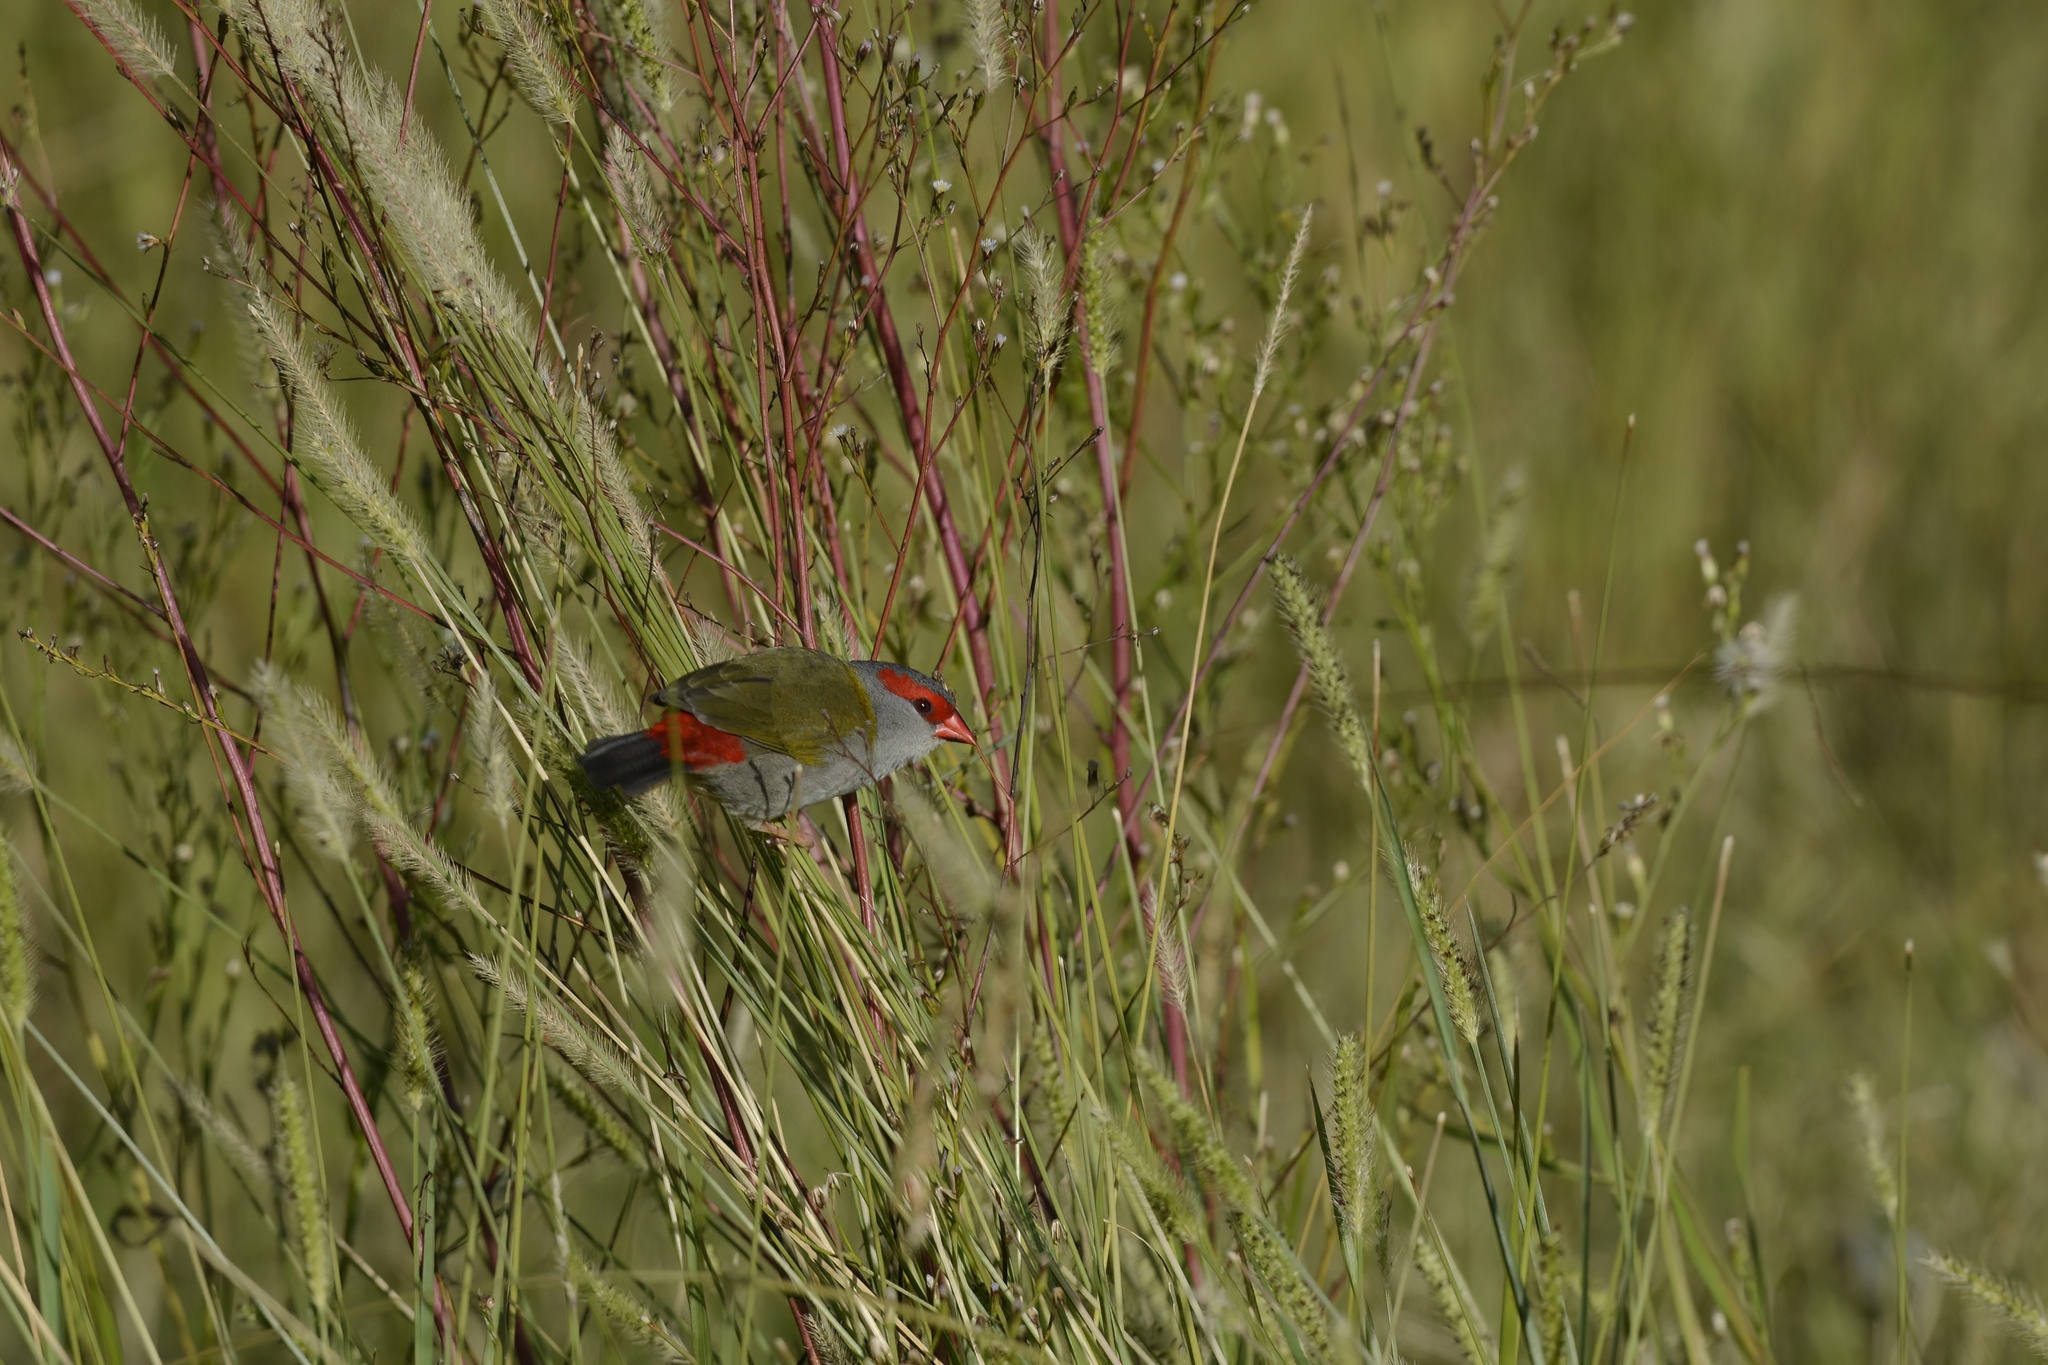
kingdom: Animalia
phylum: Chordata
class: Aves
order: Passeriformes
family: Estrildidae
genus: Neochmia
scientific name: Neochmia temporalis
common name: Red-browed finch
